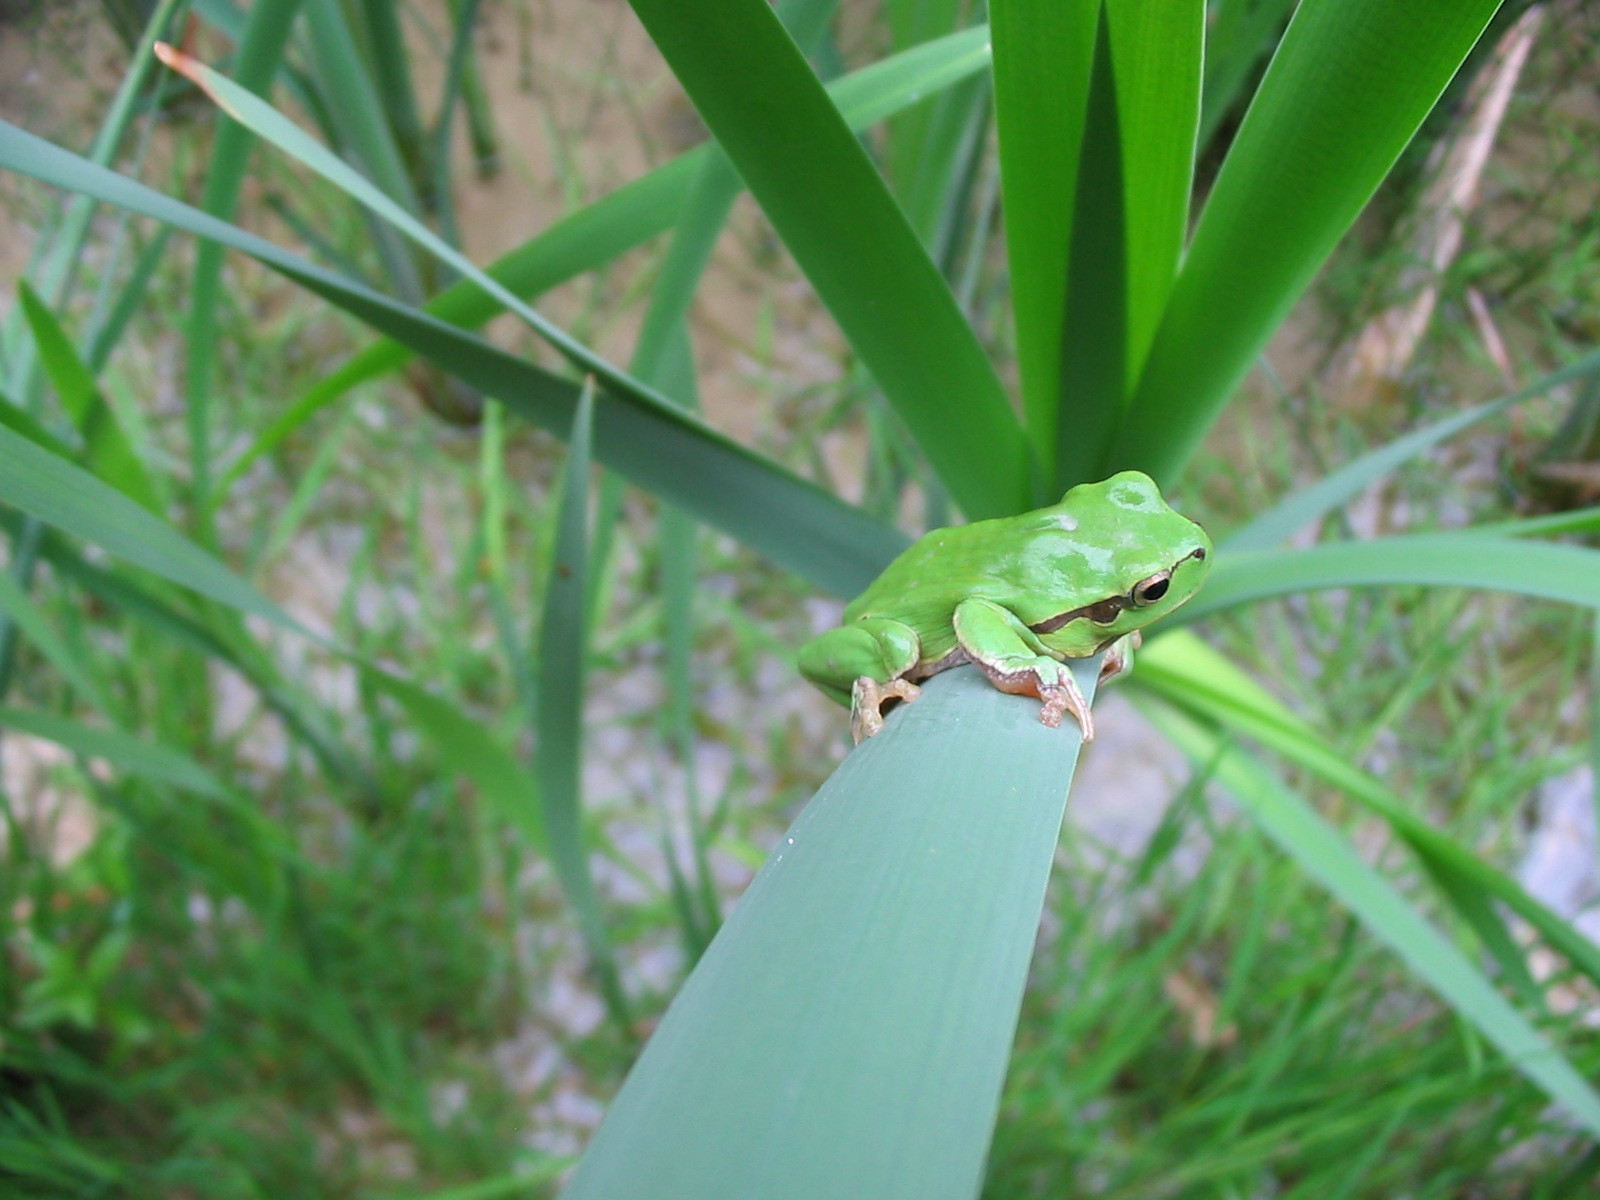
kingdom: Animalia
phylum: Chordata
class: Amphibia
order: Anura
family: Hylidae
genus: Hyla
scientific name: Hyla arborea
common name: Common tree frog
